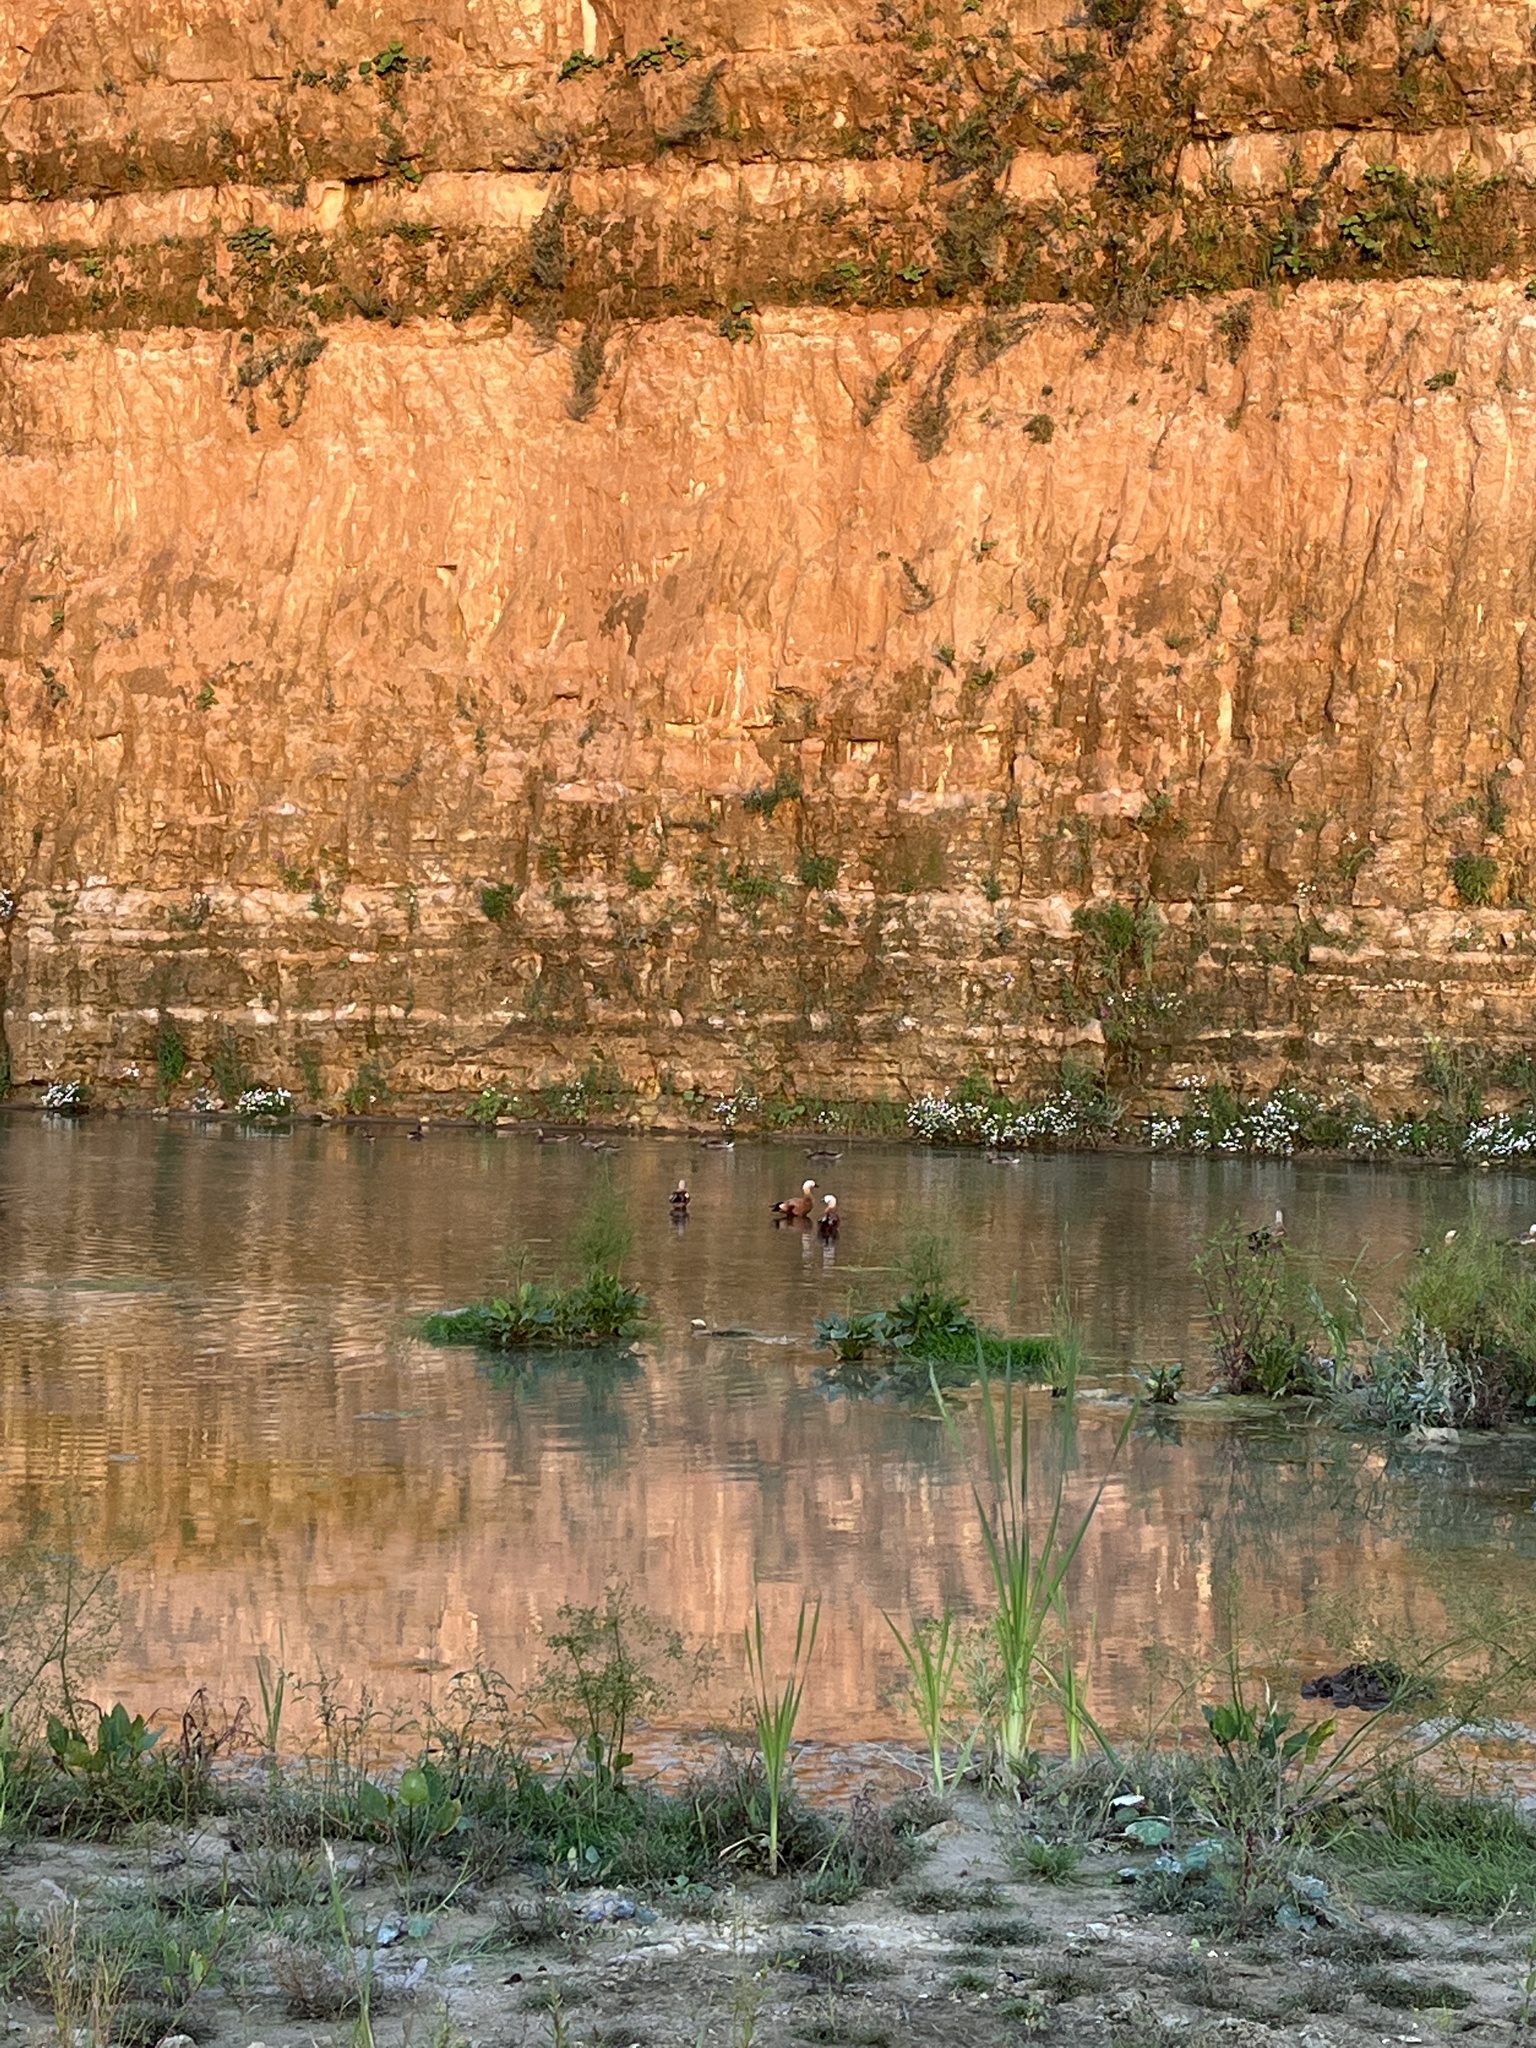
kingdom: Animalia
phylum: Chordata
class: Aves
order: Anseriformes
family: Anatidae
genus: Tadorna
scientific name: Tadorna ferruginea
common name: Ruddy shelduck
